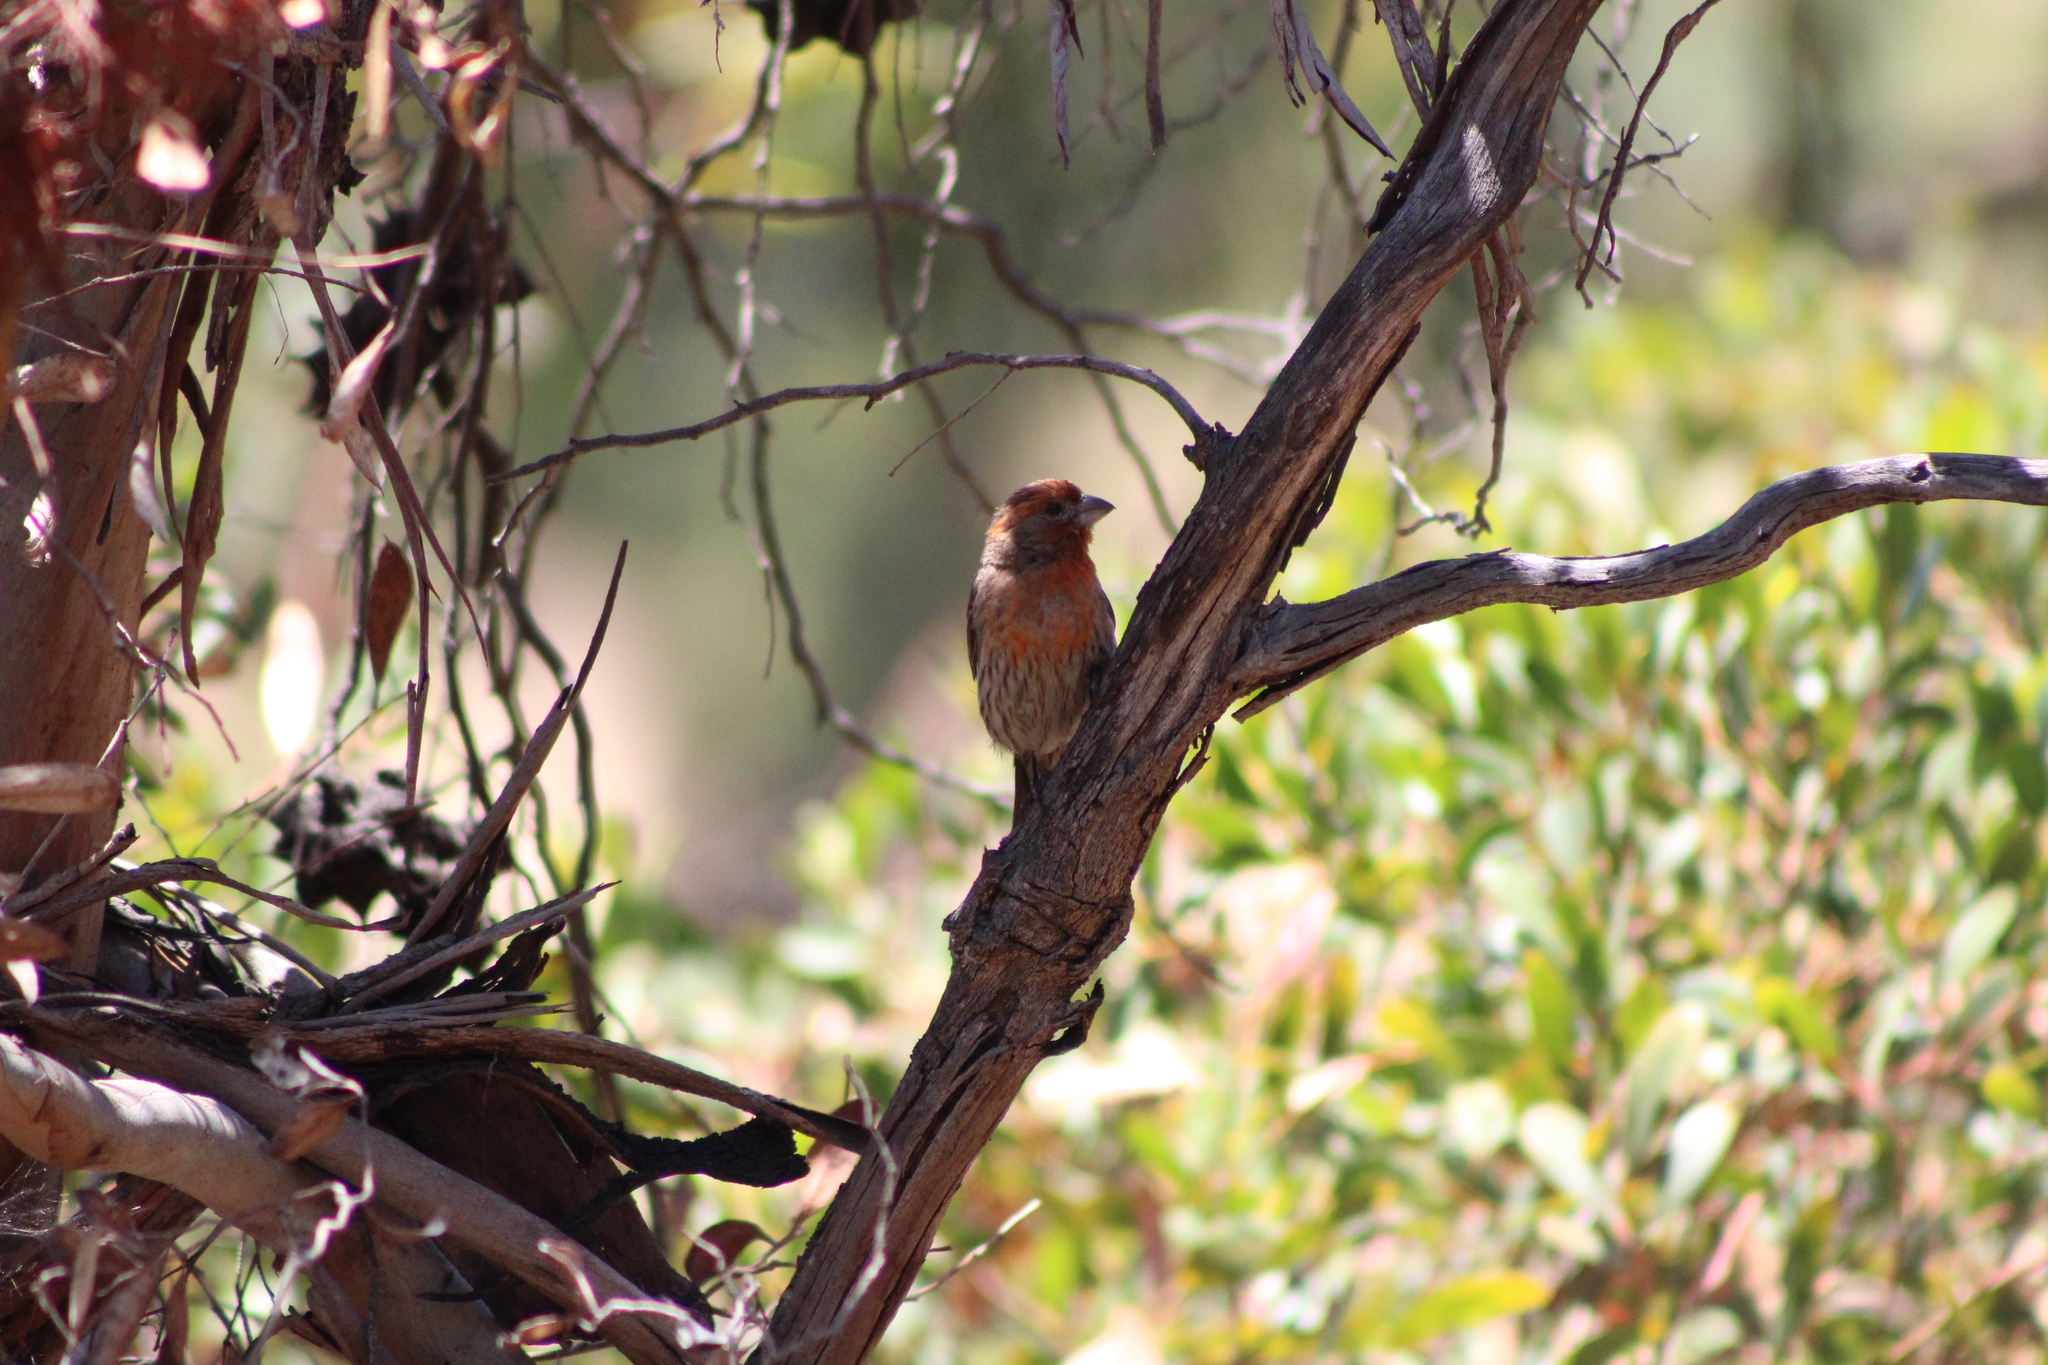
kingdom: Animalia
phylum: Chordata
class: Aves
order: Passeriformes
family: Fringillidae
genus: Haemorhous
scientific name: Haemorhous mexicanus
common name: House finch
